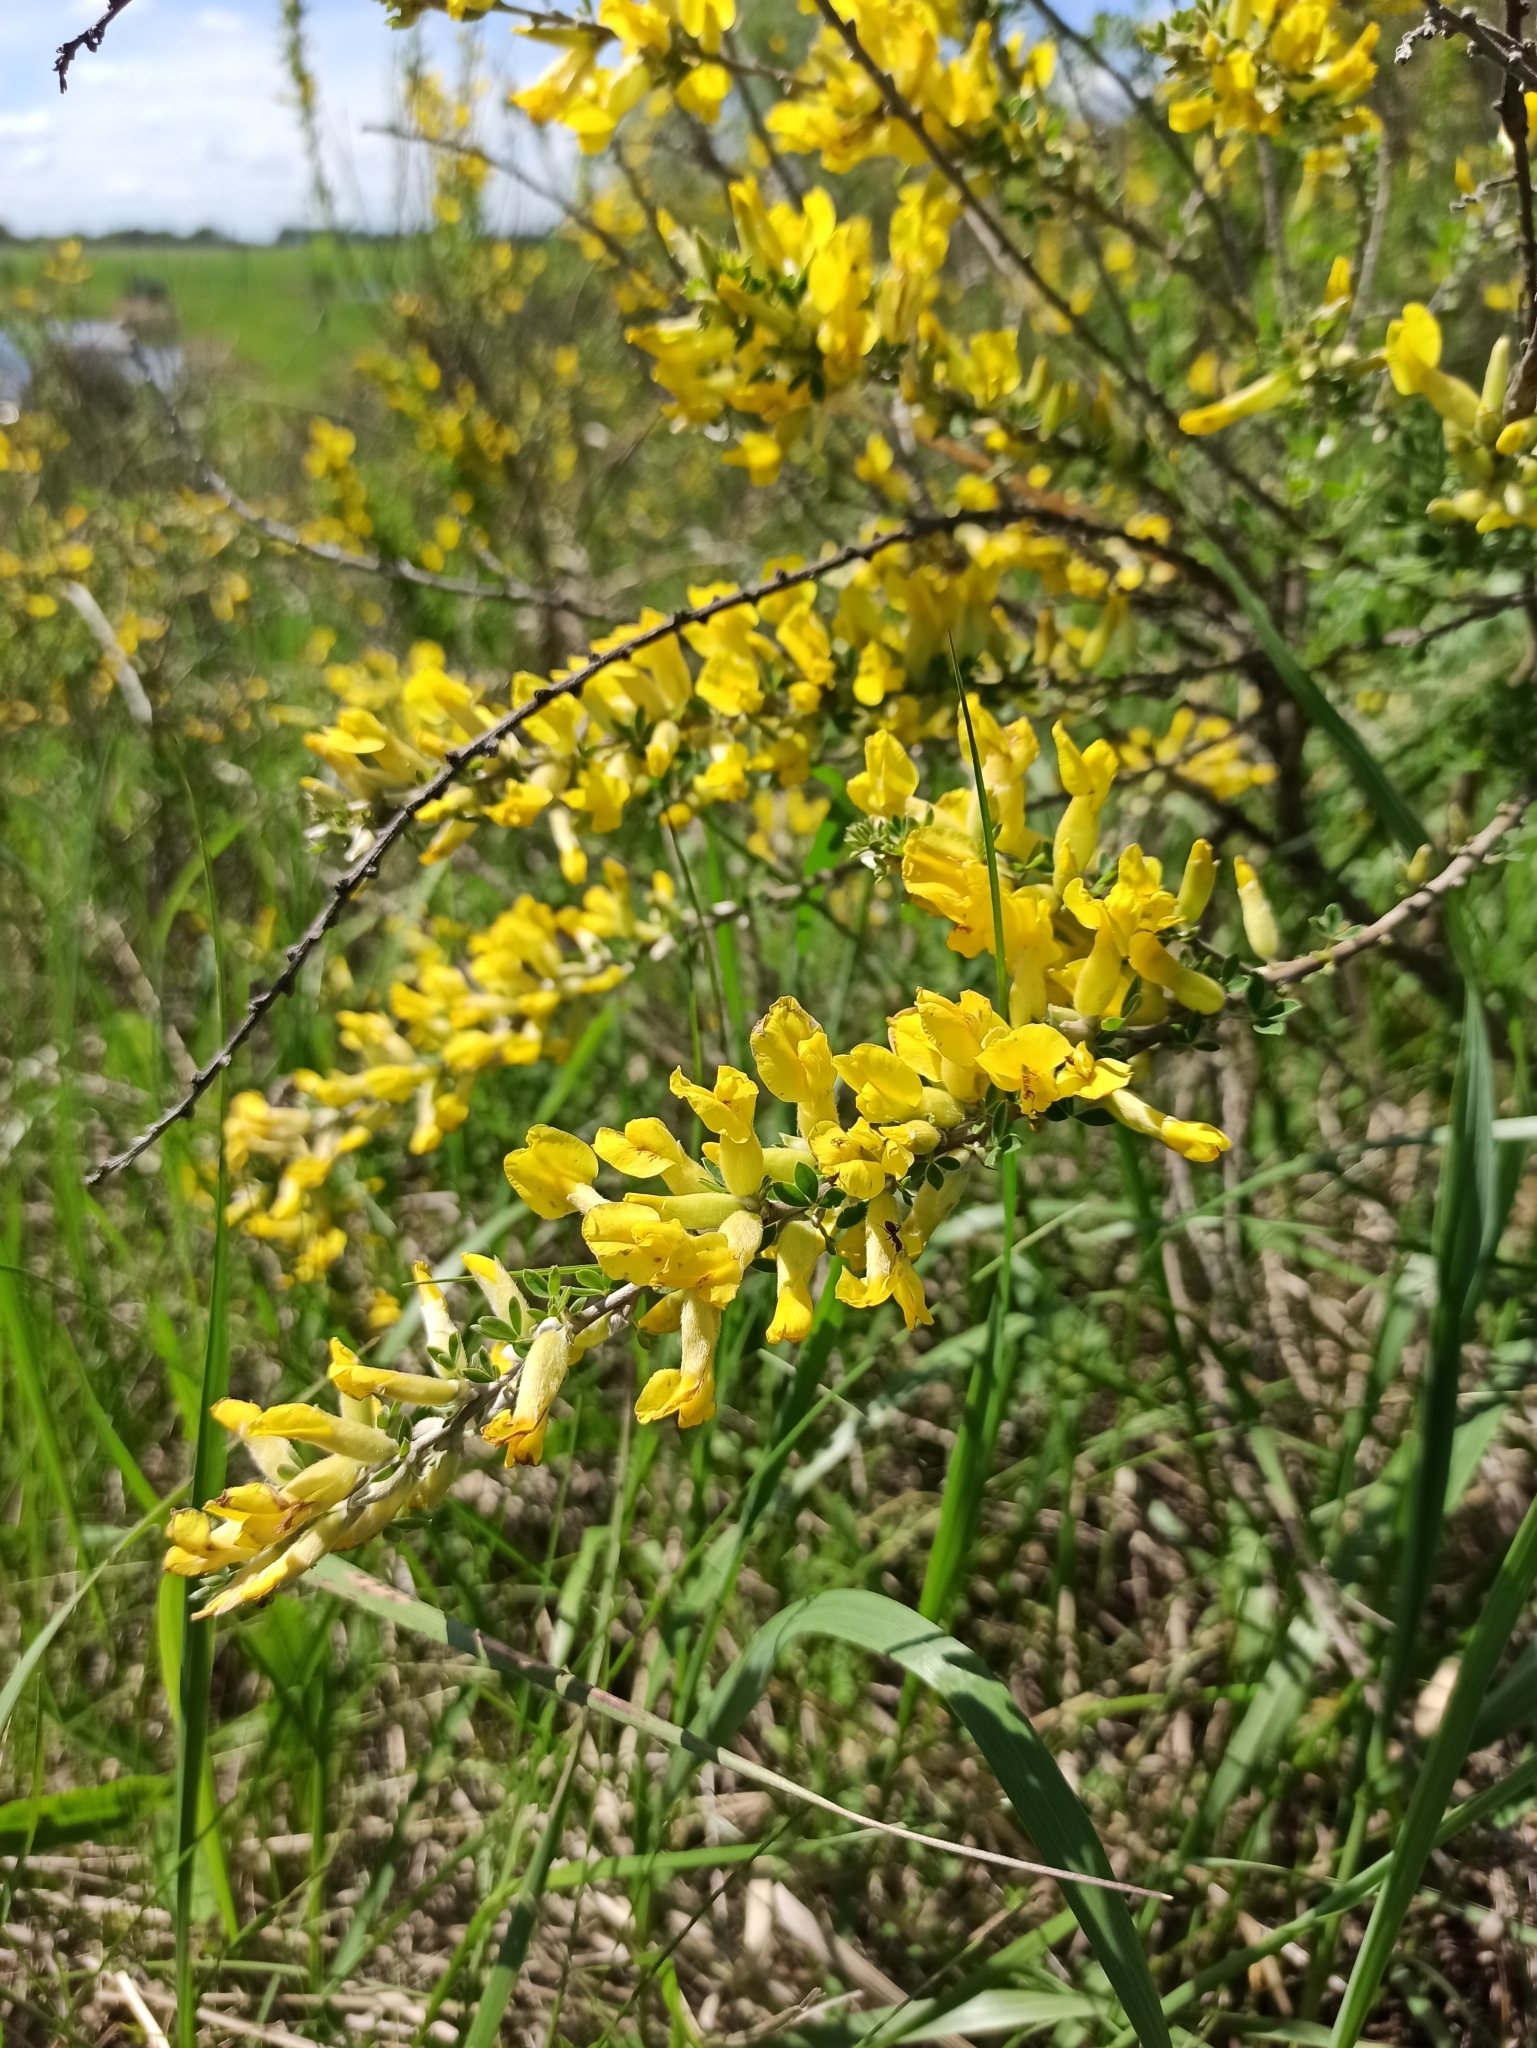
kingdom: Plantae
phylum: Tracheophyta
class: Magnoliopsida
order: Fabales
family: Fabaceae
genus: Chamaecytisus
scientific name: Chamaecytisus ruthenicus
